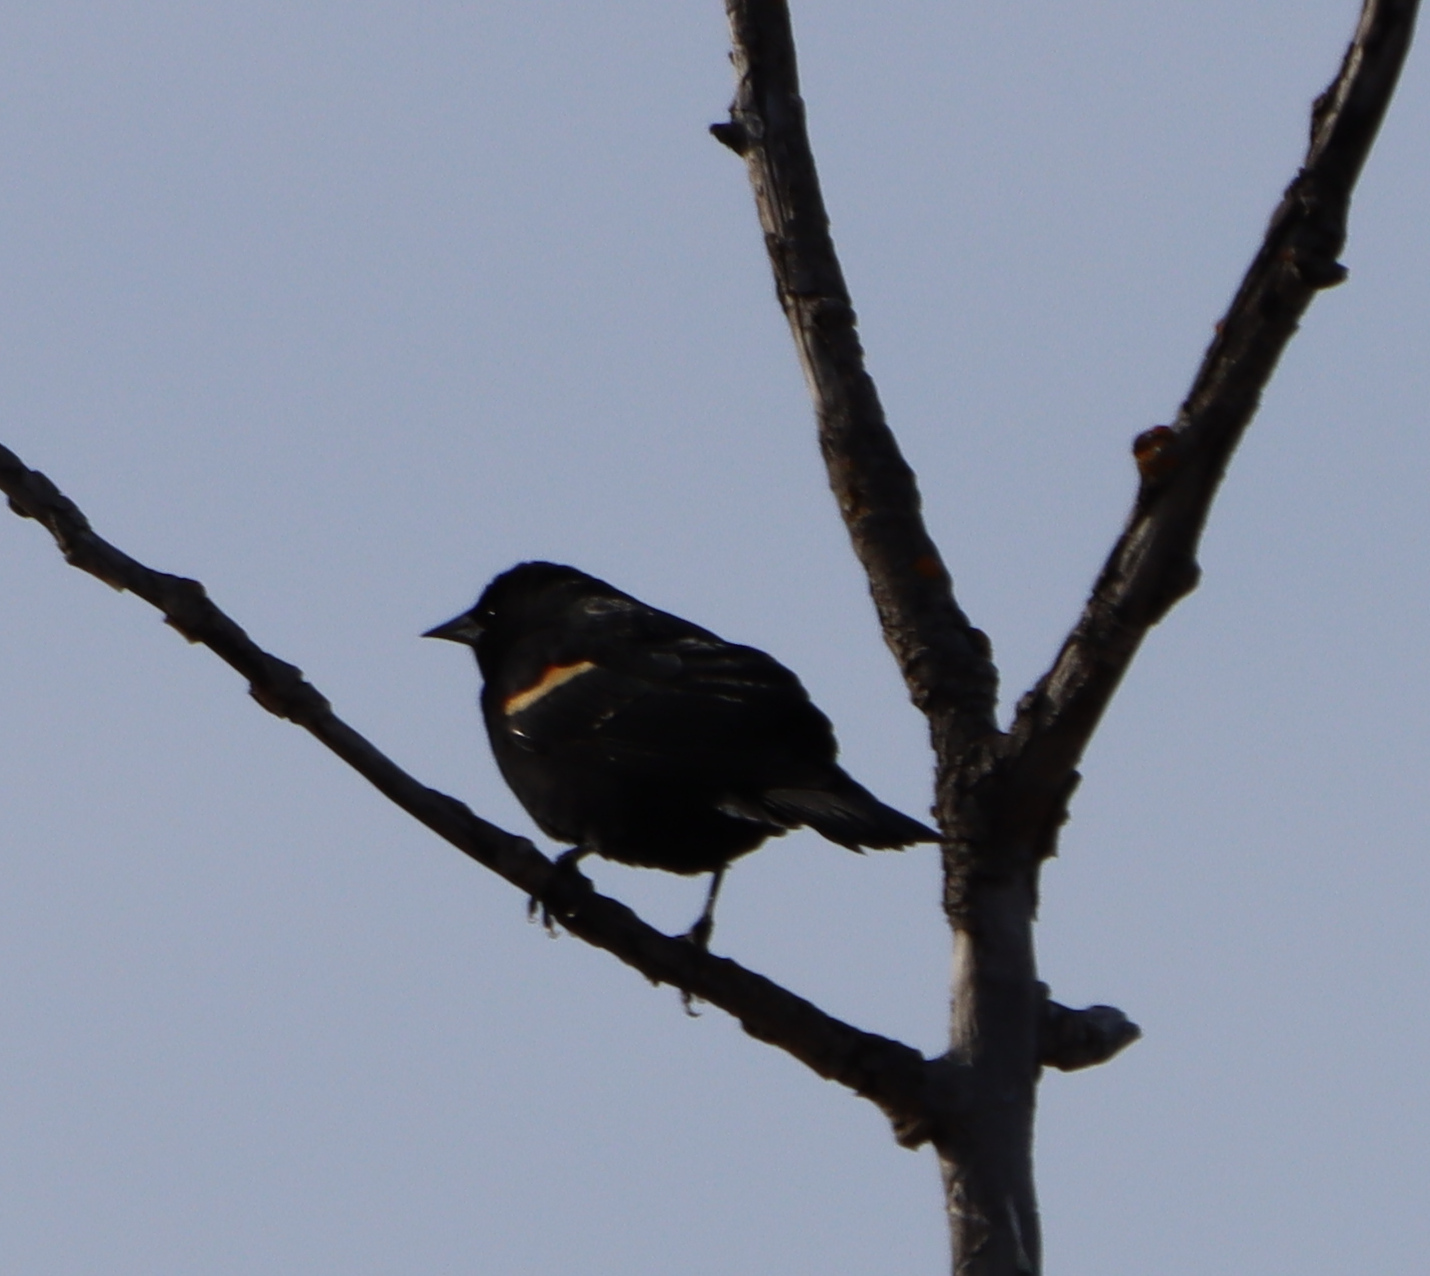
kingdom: Animalia
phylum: Chordata
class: Aves
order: Passeriformes
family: Icteridae
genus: Agelaius
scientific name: Agelaius phoeniceus
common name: Red-winged blackbird
